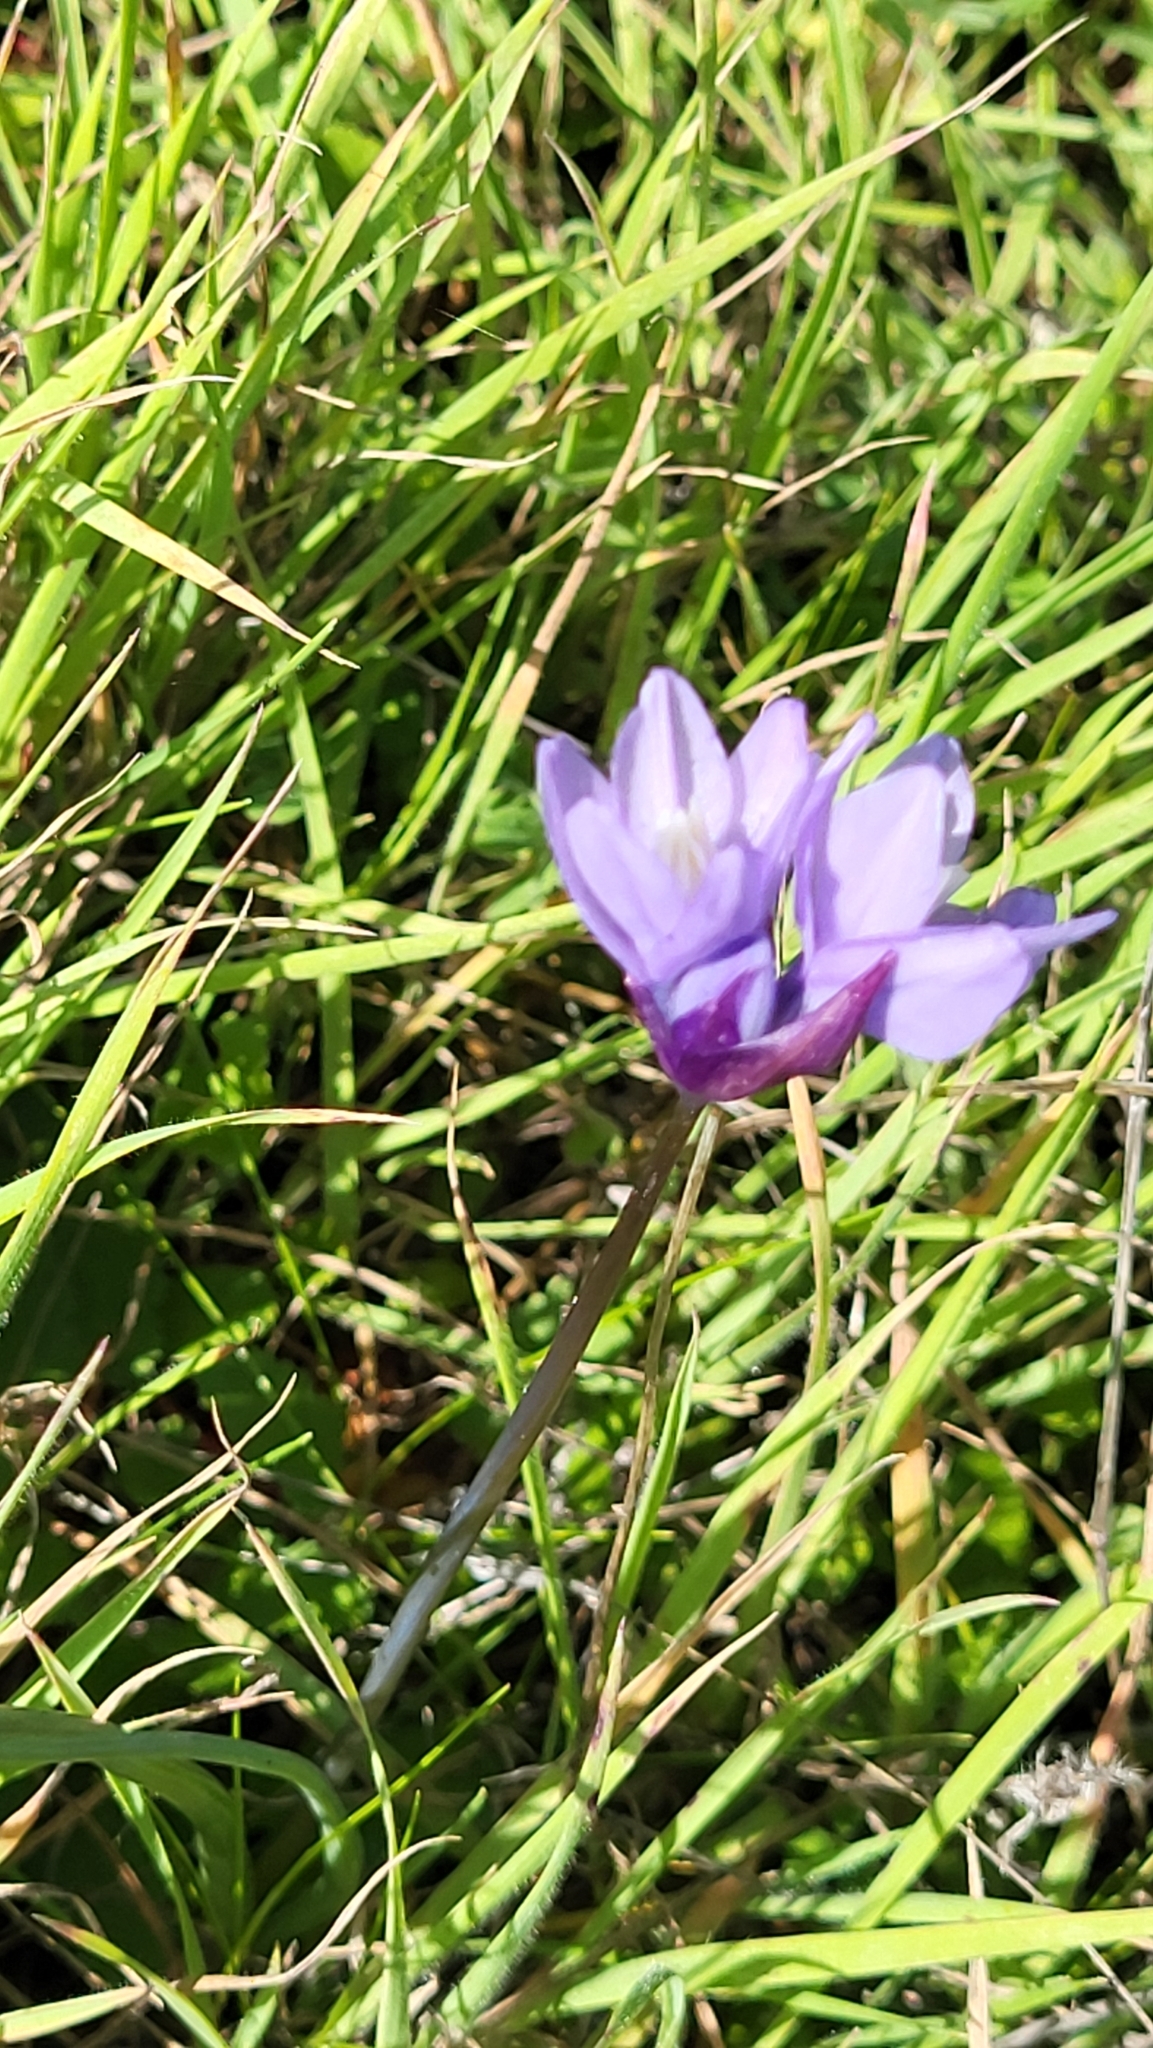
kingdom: Plantae
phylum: Tracheophyta
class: Liliopsida
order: Asparagales
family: Asparagaceae
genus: Dipterostemon
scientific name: Dipterostemon capitatus
